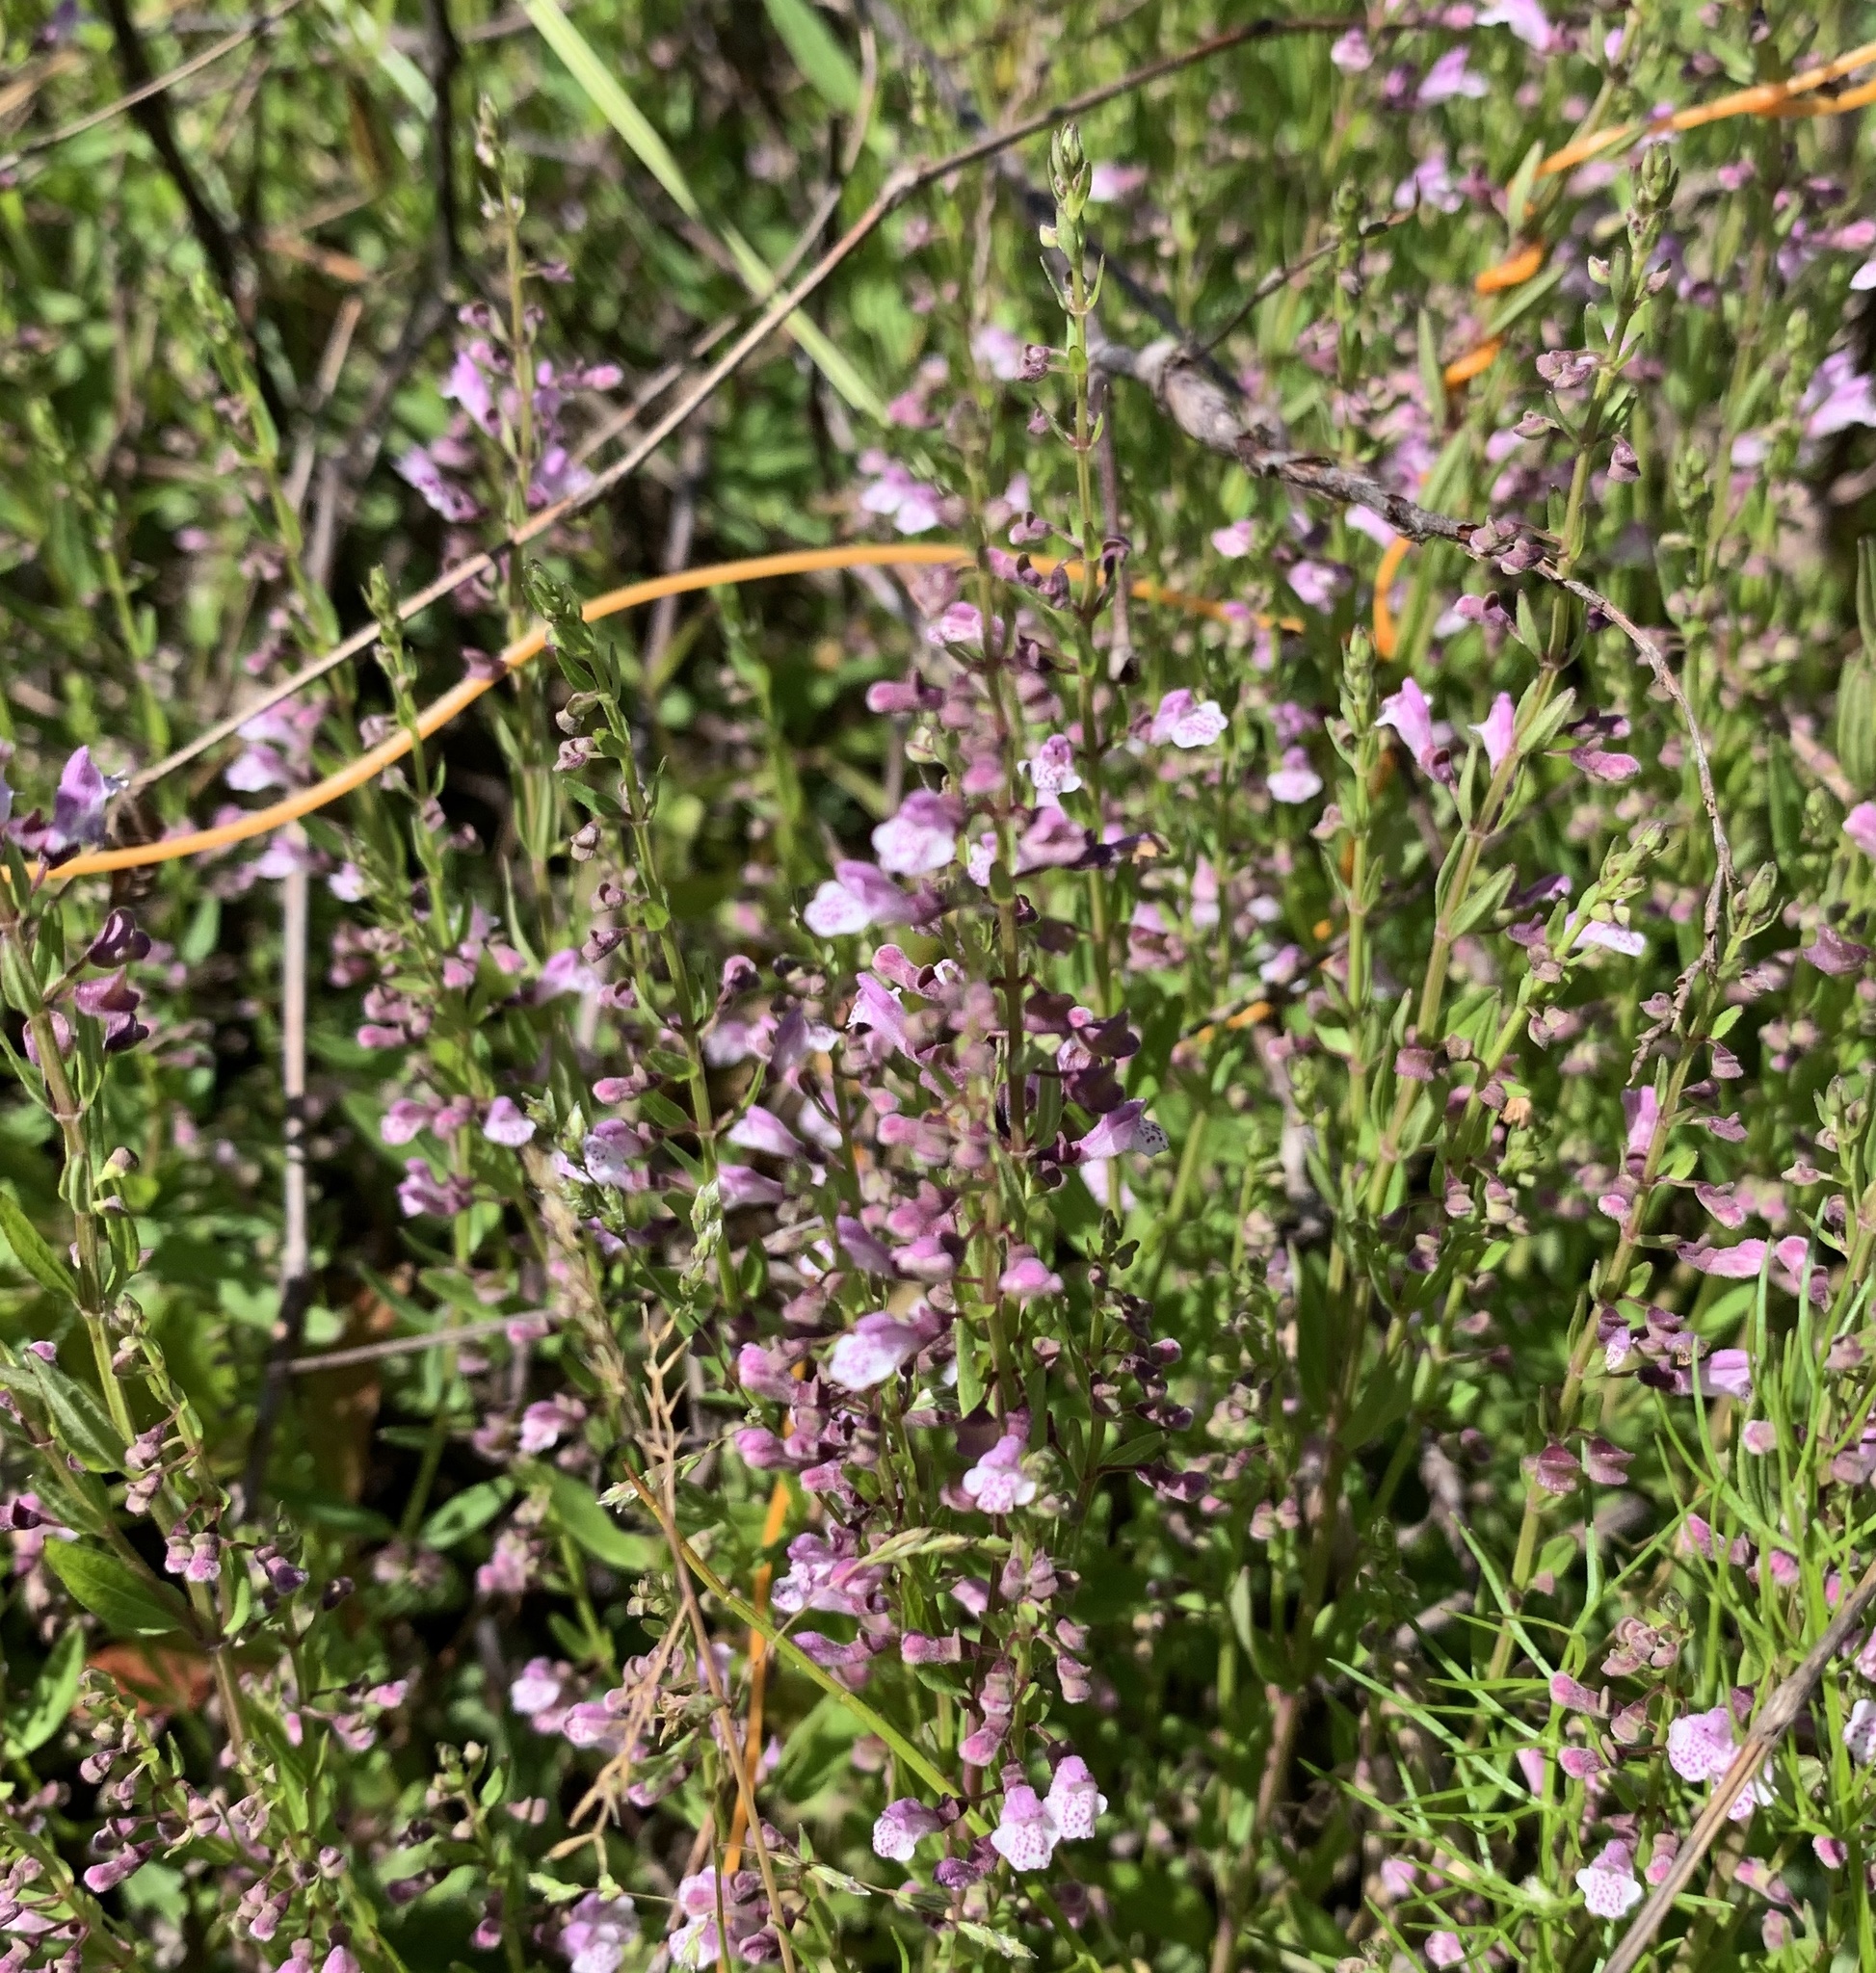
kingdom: Plantae
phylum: Tracheophyta
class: Magnoliopsida
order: Lamiales
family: Lamiaceae
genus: Scutellaria
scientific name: Scutellaria racemosa
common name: South american skullcap
